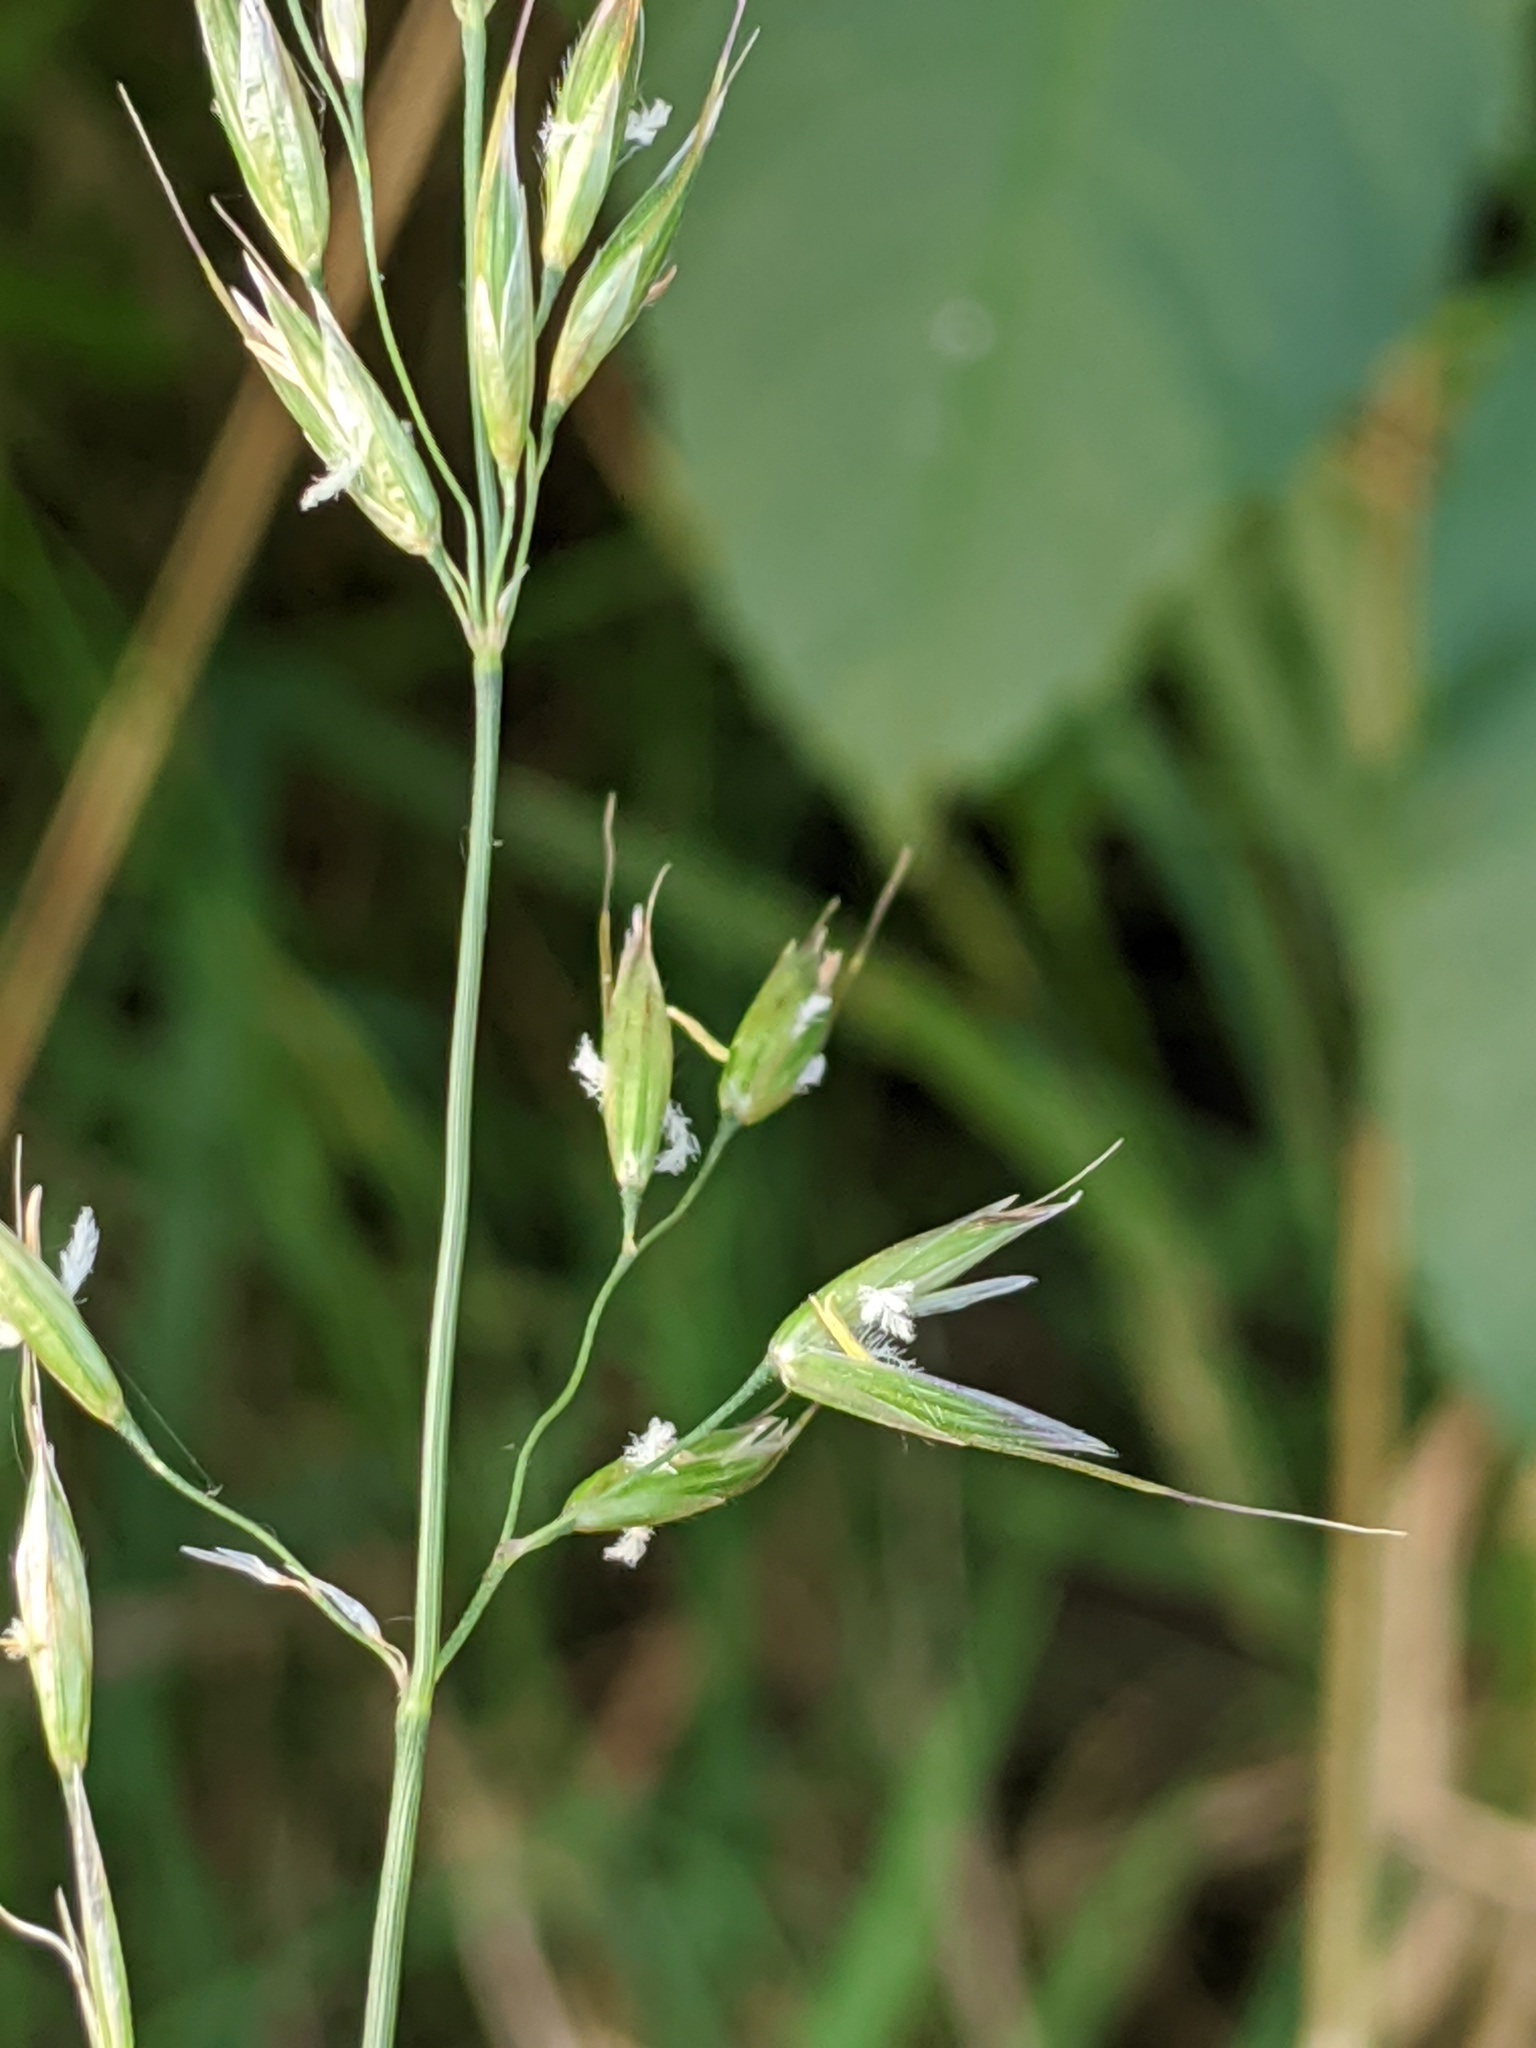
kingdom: Plantae
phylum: Tracheophyta
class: Liliopsida
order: Poales
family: Poaceae
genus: Arrhenatherum
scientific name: Arrhenatherum elatius
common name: Tall oatgrass
